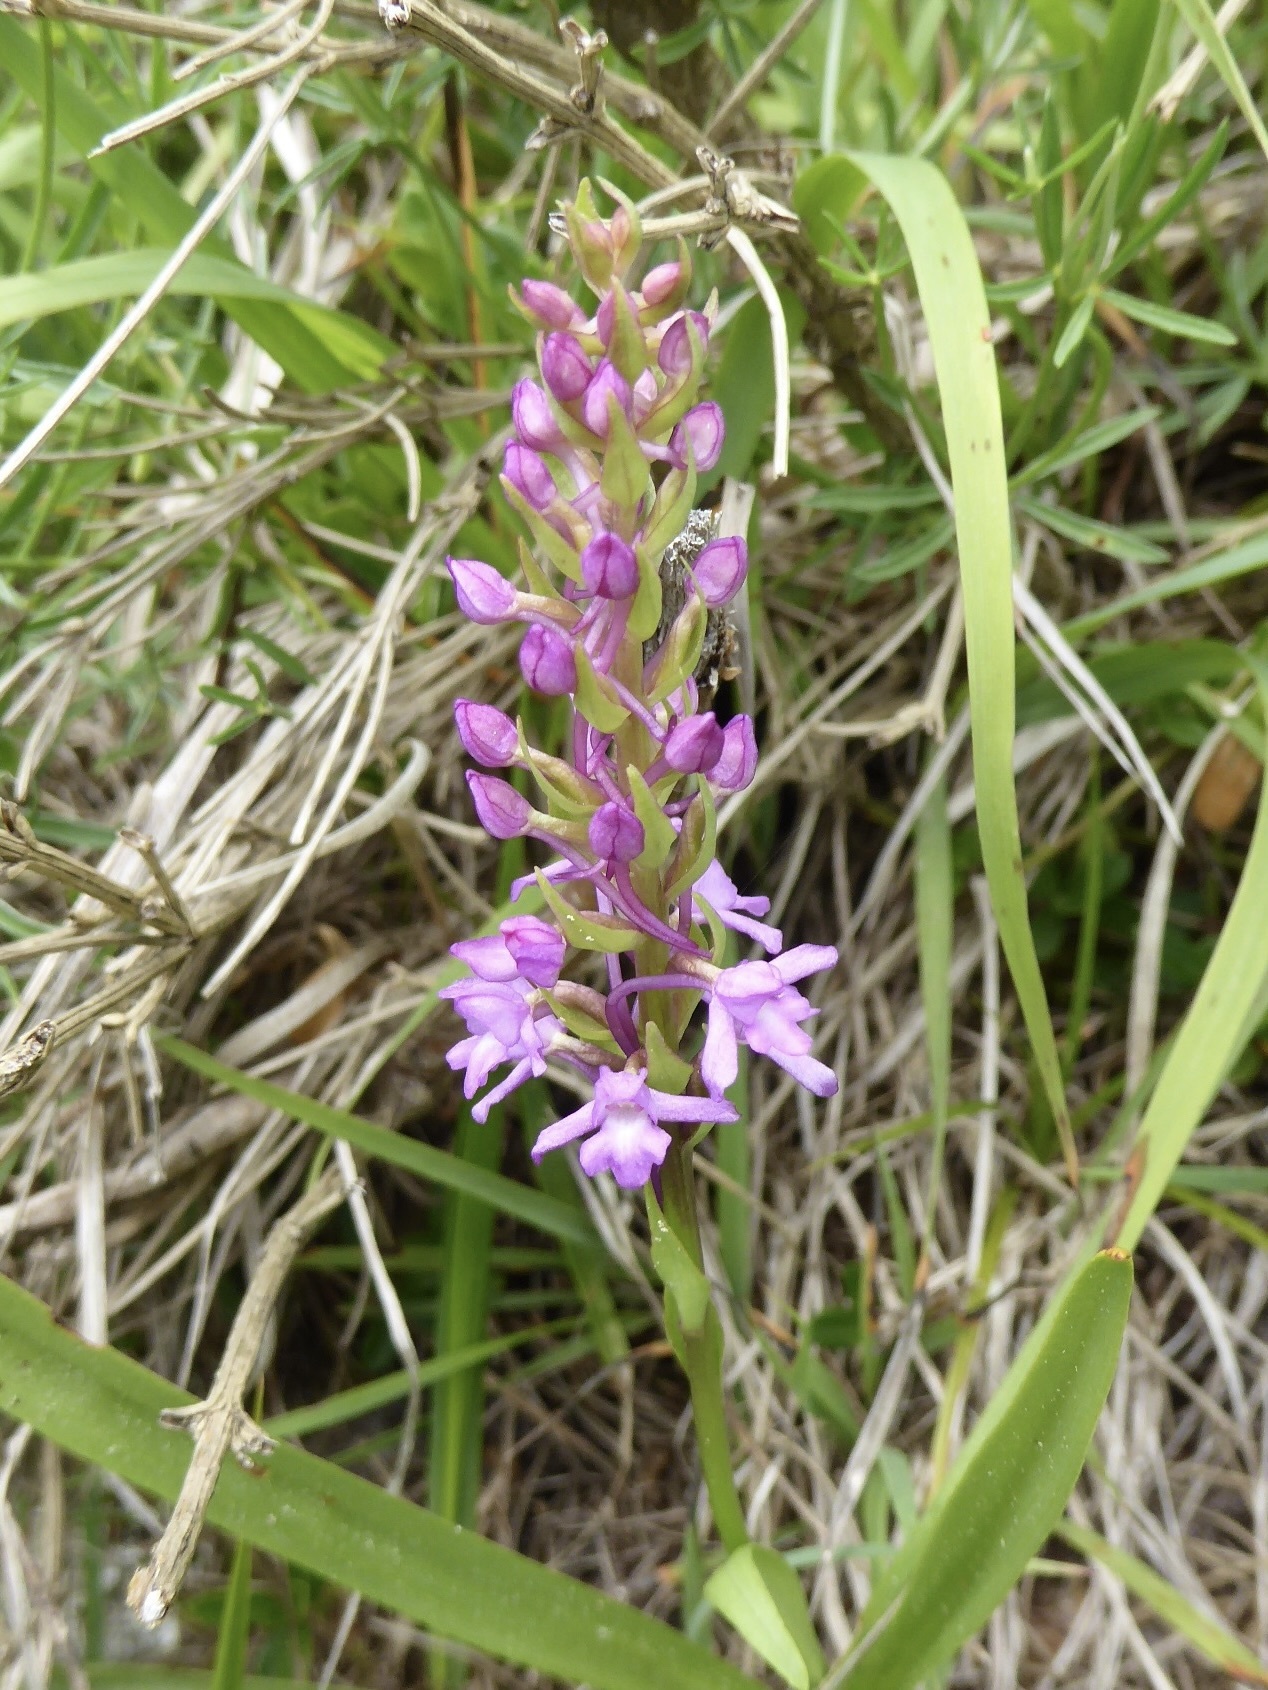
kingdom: Plantae
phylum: Tracheophyta
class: Liliopsida
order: Asparagales
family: Orchidaceae
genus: Gymnadenia
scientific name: Gymnadenia conopsea
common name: Fragrant orchid
